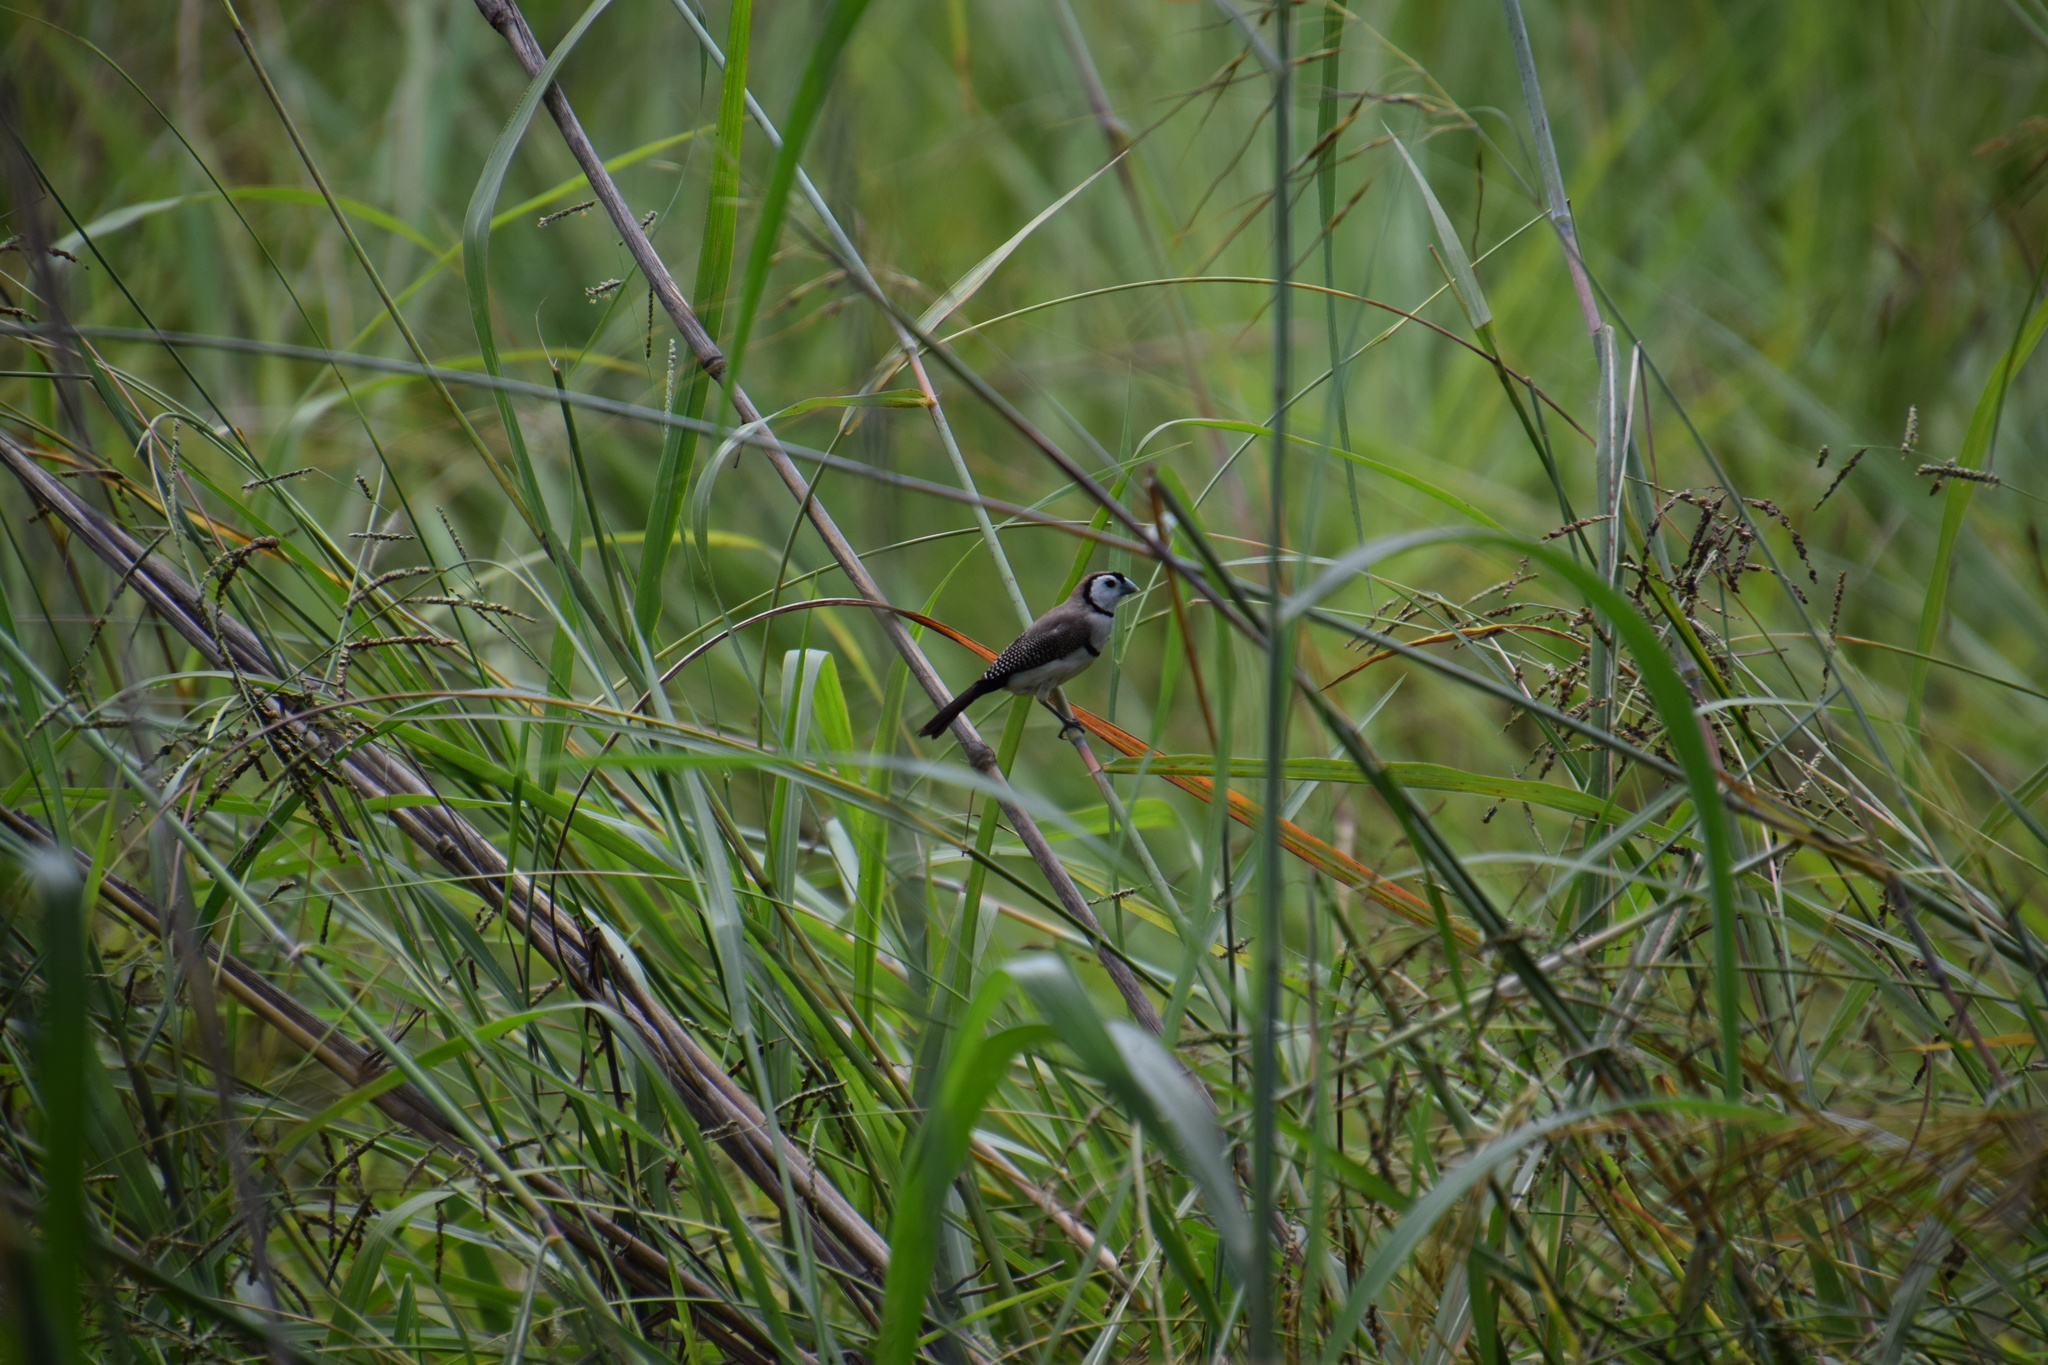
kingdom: Animalia
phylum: Chordata
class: Aves
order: Passeriformes
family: Estrildidae
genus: Taeniopygia
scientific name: Taeniopygia bichenovii
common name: Double-barred finch
